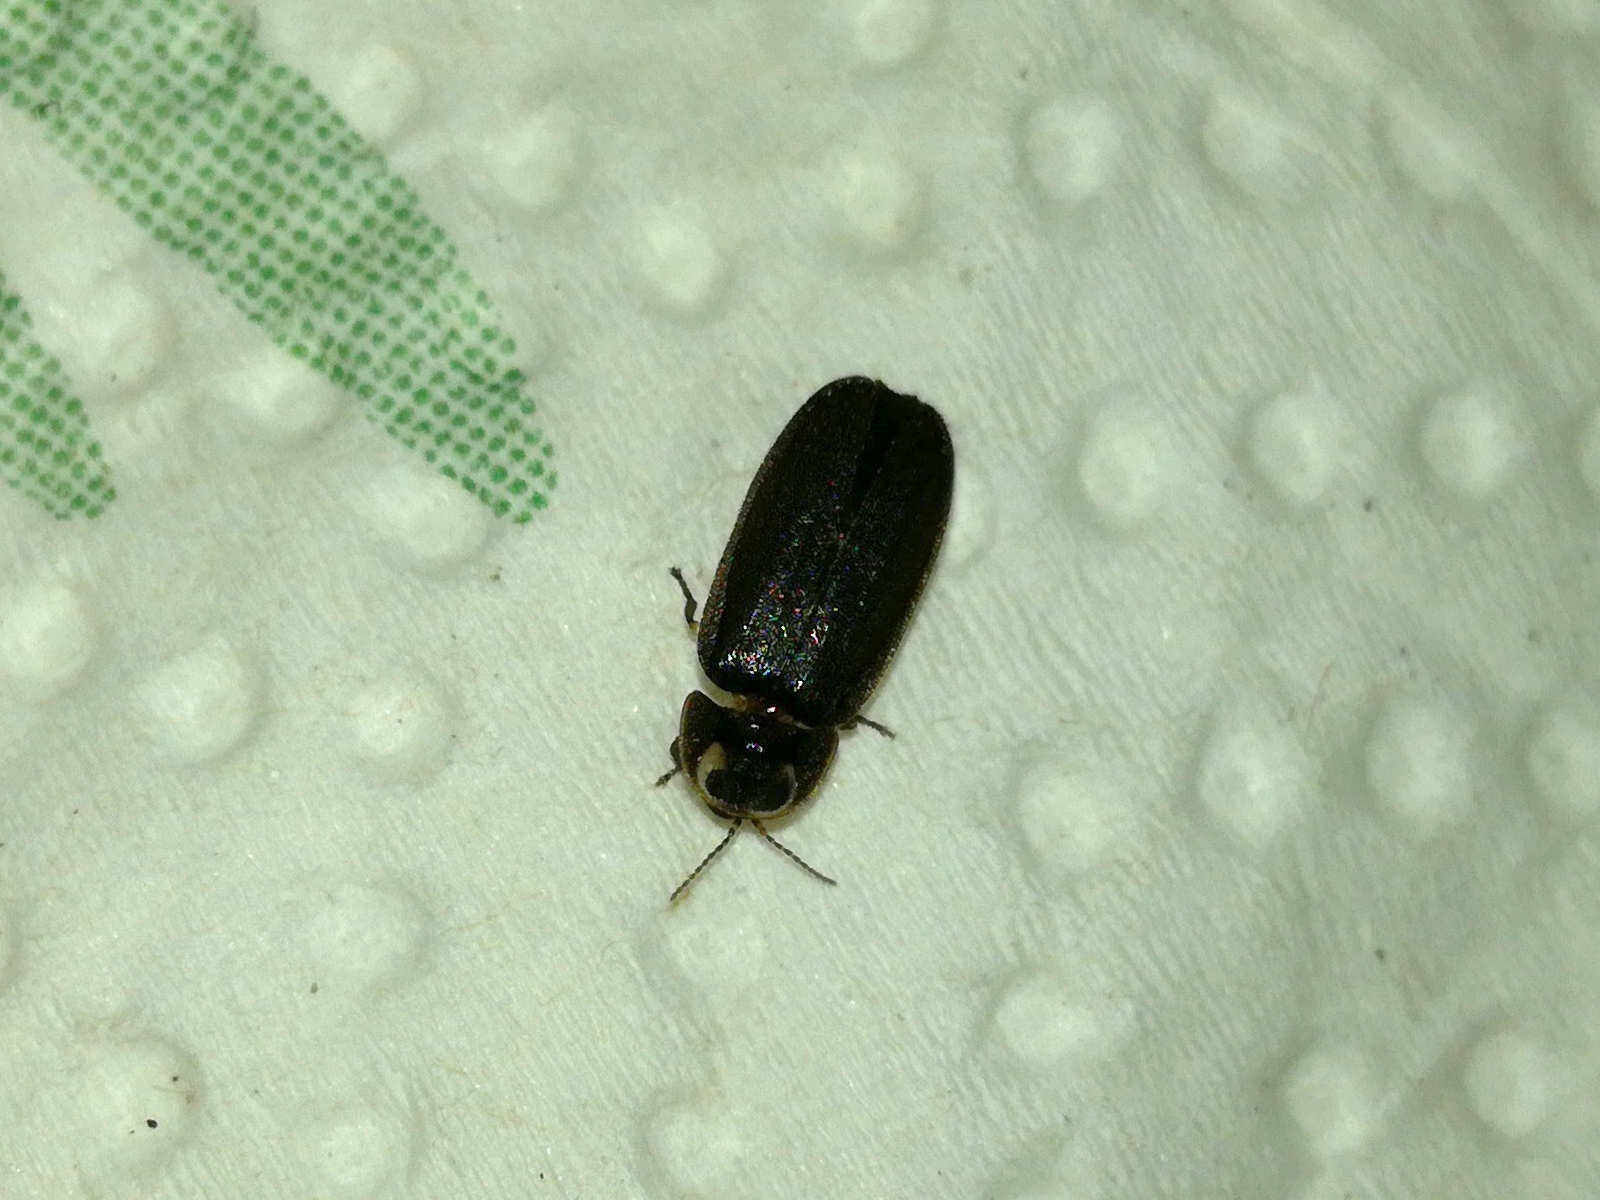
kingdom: Animalia
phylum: Arthropoda
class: Insecta
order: Coleoptera
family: Lampyridae
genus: Lamprohiza
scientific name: Lamprohiza splendidula
